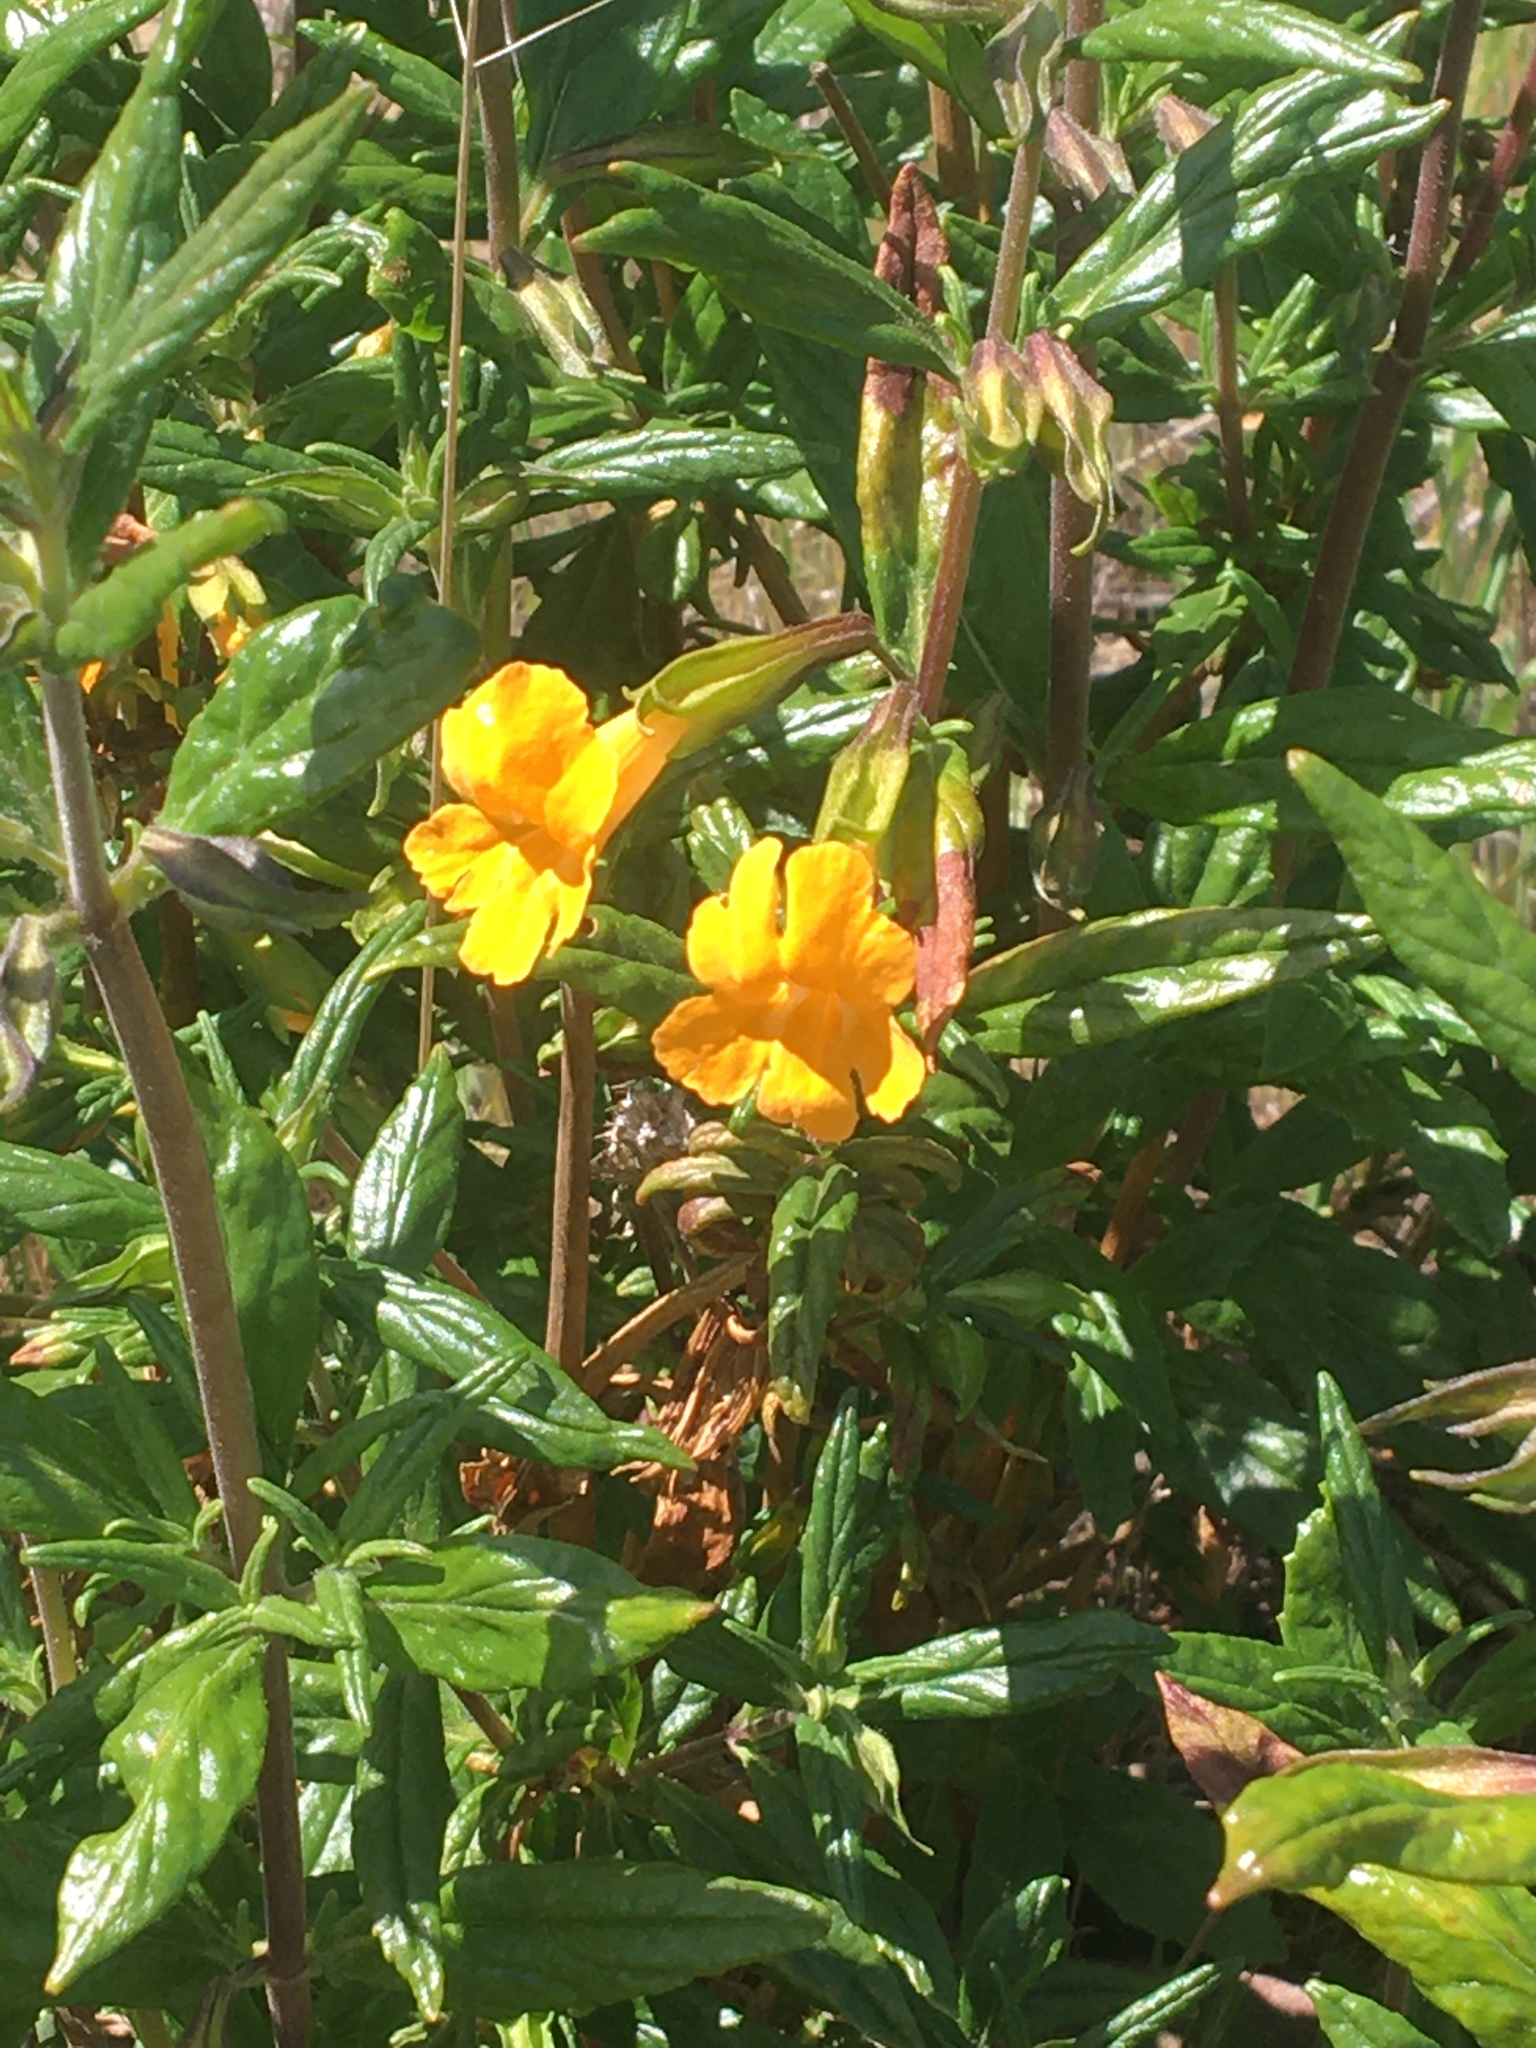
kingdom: Plantae
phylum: Tracheophyta
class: Magnoliopsida
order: Lamiales
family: Phrymaceae
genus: Diplacus
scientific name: Diplacus aurantiacus
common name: Bush monkey-flower
